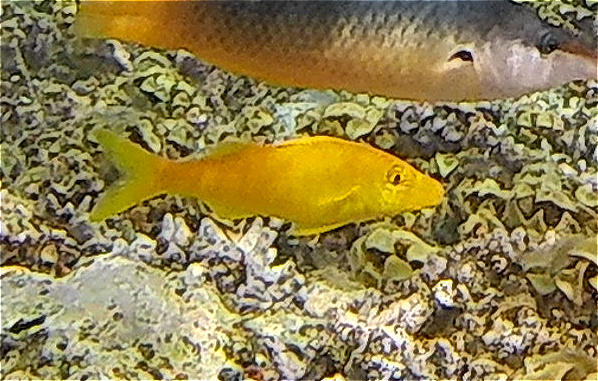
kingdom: Animalia
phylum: Chordata
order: Perciformes
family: Mullidae
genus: Parupeneus
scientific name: Parupeneus cyclostomus
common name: Goldsaddle goatfish
